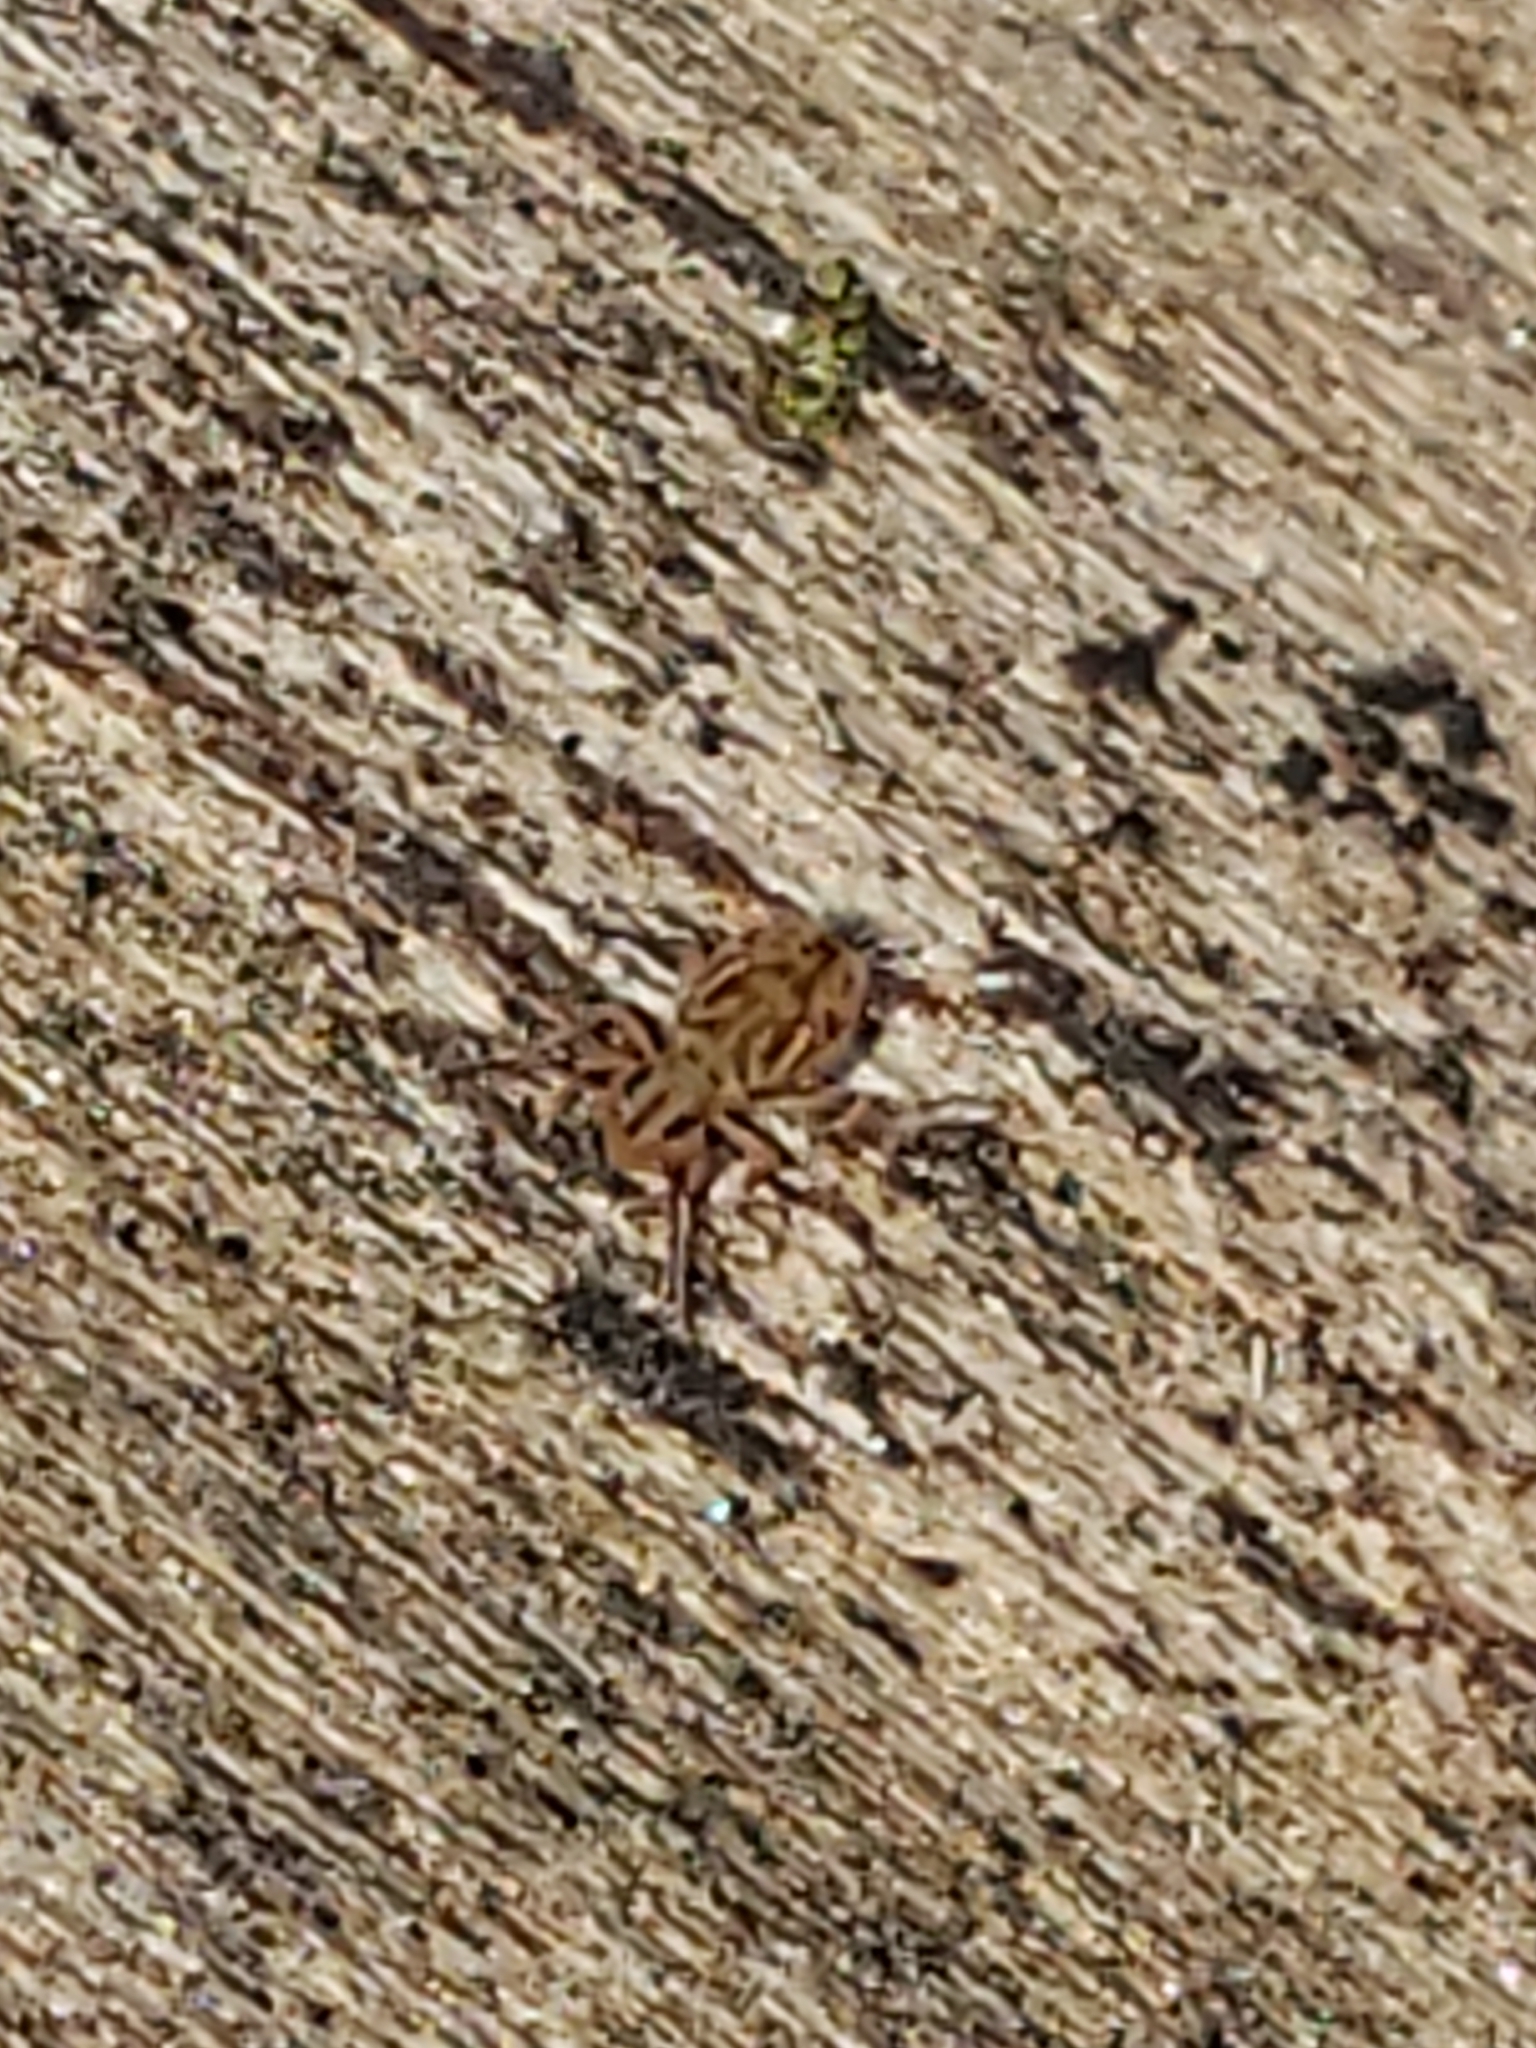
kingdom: Animalia
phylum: Arthropoda
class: Collembola
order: Symphypleona
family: Dicyrtomidae
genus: Dicyrtomina
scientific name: Dicyrtomina minuta
